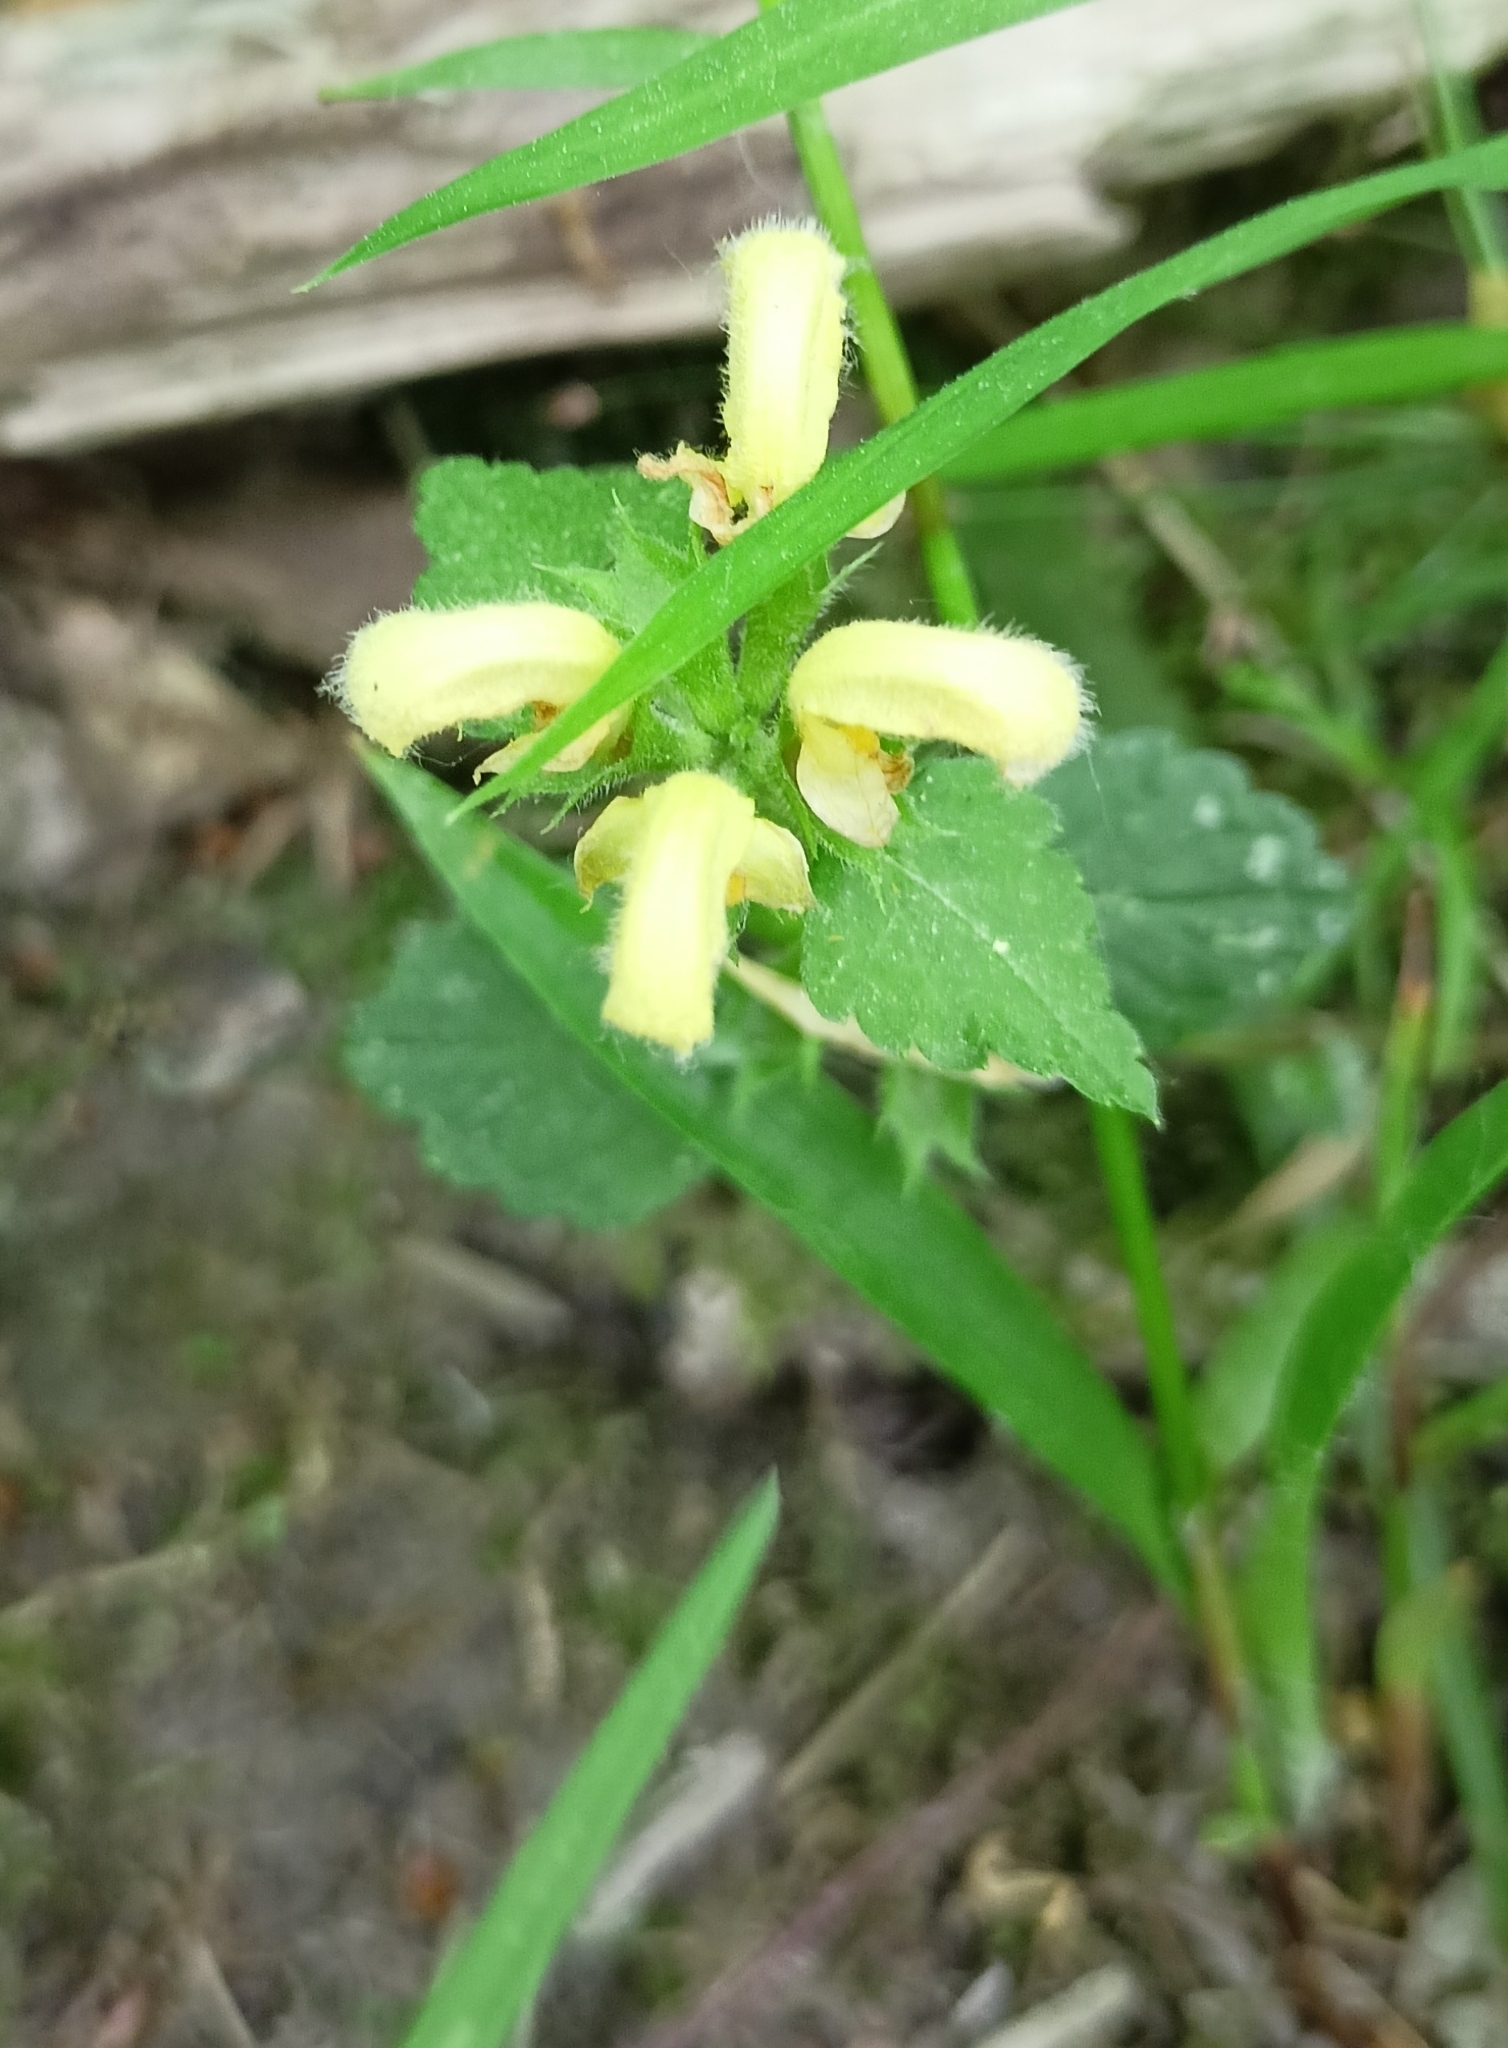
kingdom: Plantae
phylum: Tracheophyta
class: Magnoliopsida
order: Lamiales
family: Lamiaceae
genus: Lamium
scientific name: Lamium galeobdolon
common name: Yellow archangel
